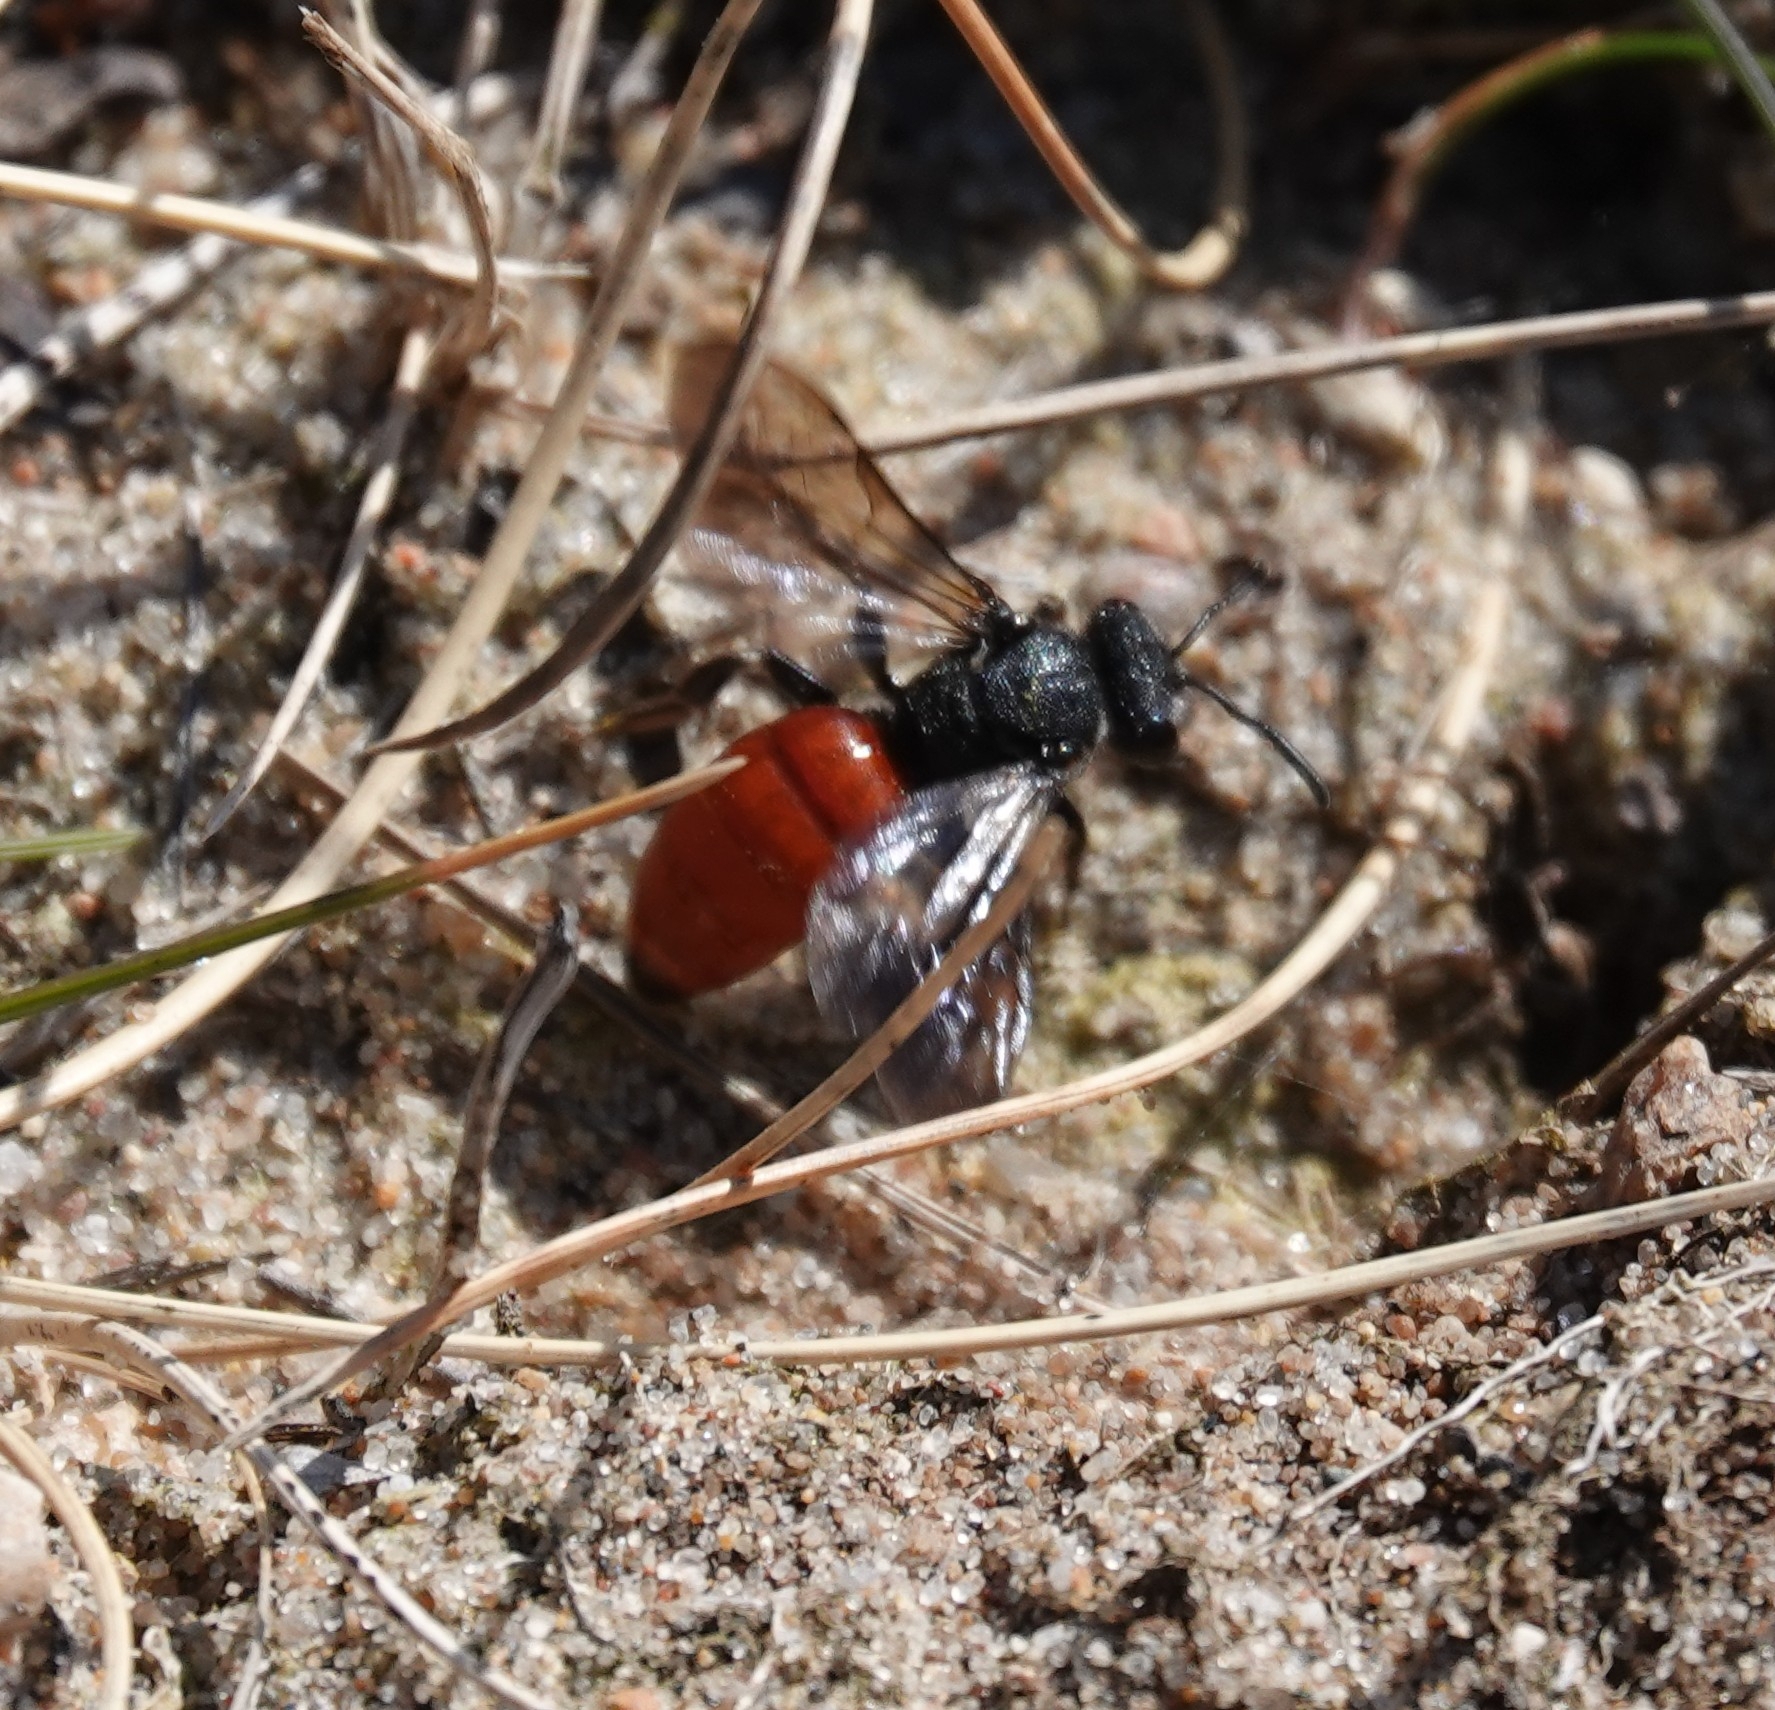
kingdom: Animalia
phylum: Arthropoda
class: Insecta
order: Hymenoptera
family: Halictidae
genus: Sphecodes
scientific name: Sphecodes albilabris
